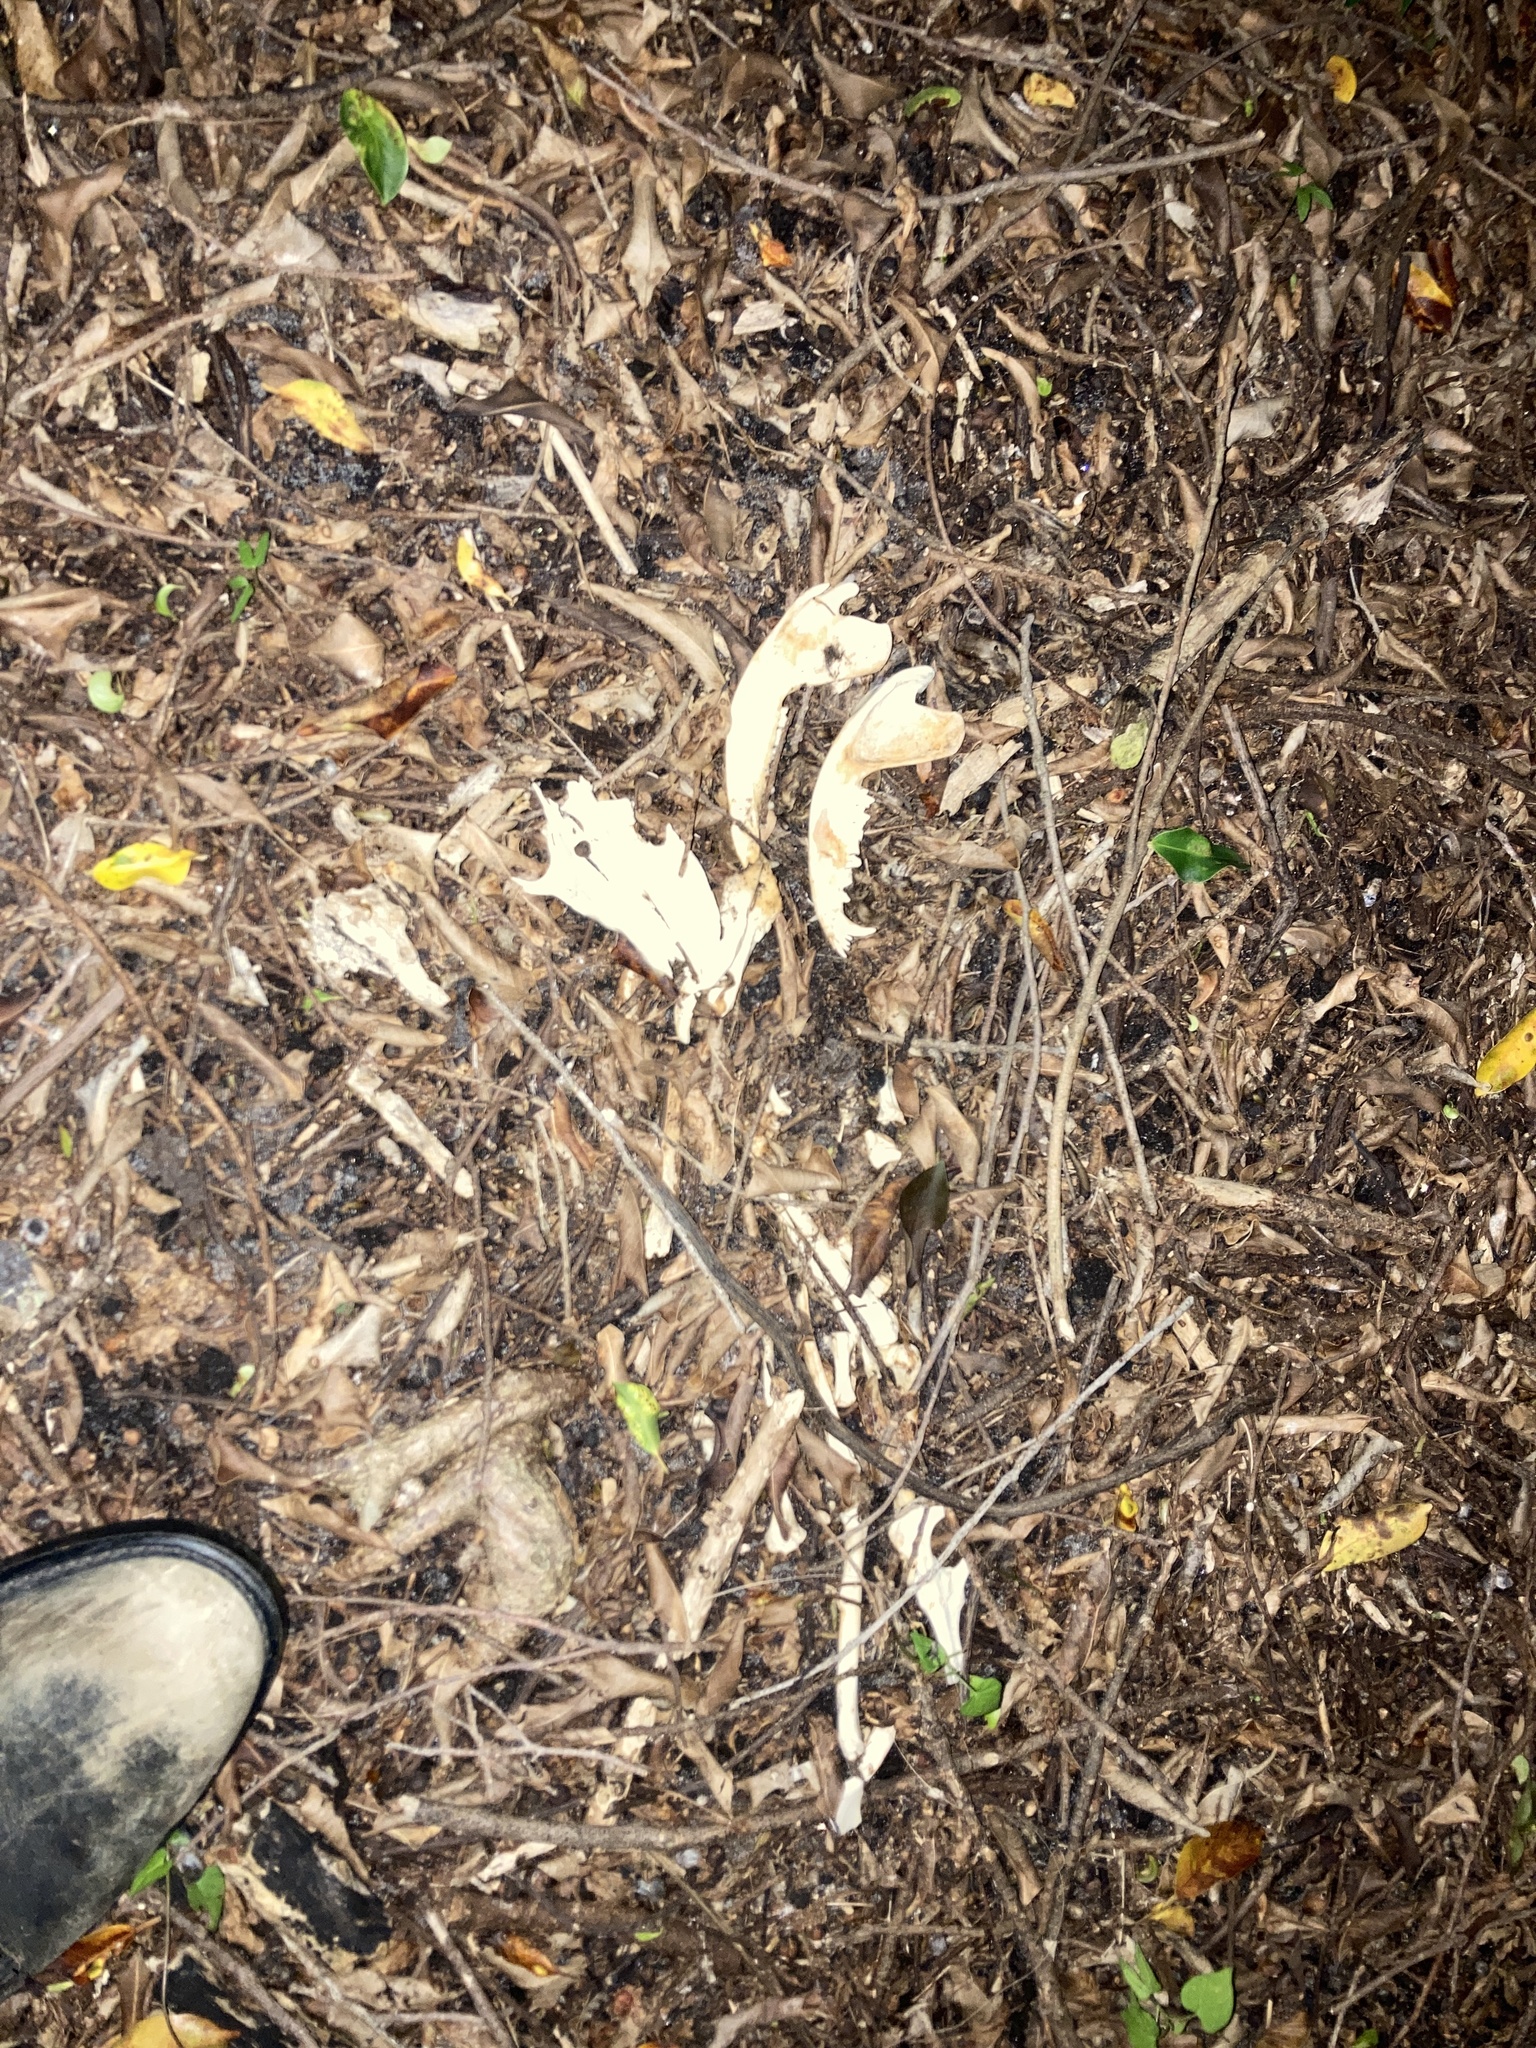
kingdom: Animalia
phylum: Chordata
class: Mammalia
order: Didelphimorphia
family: Didelphidae
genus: Didelphis
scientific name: Didelphis virginiana
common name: Virginia opossum
